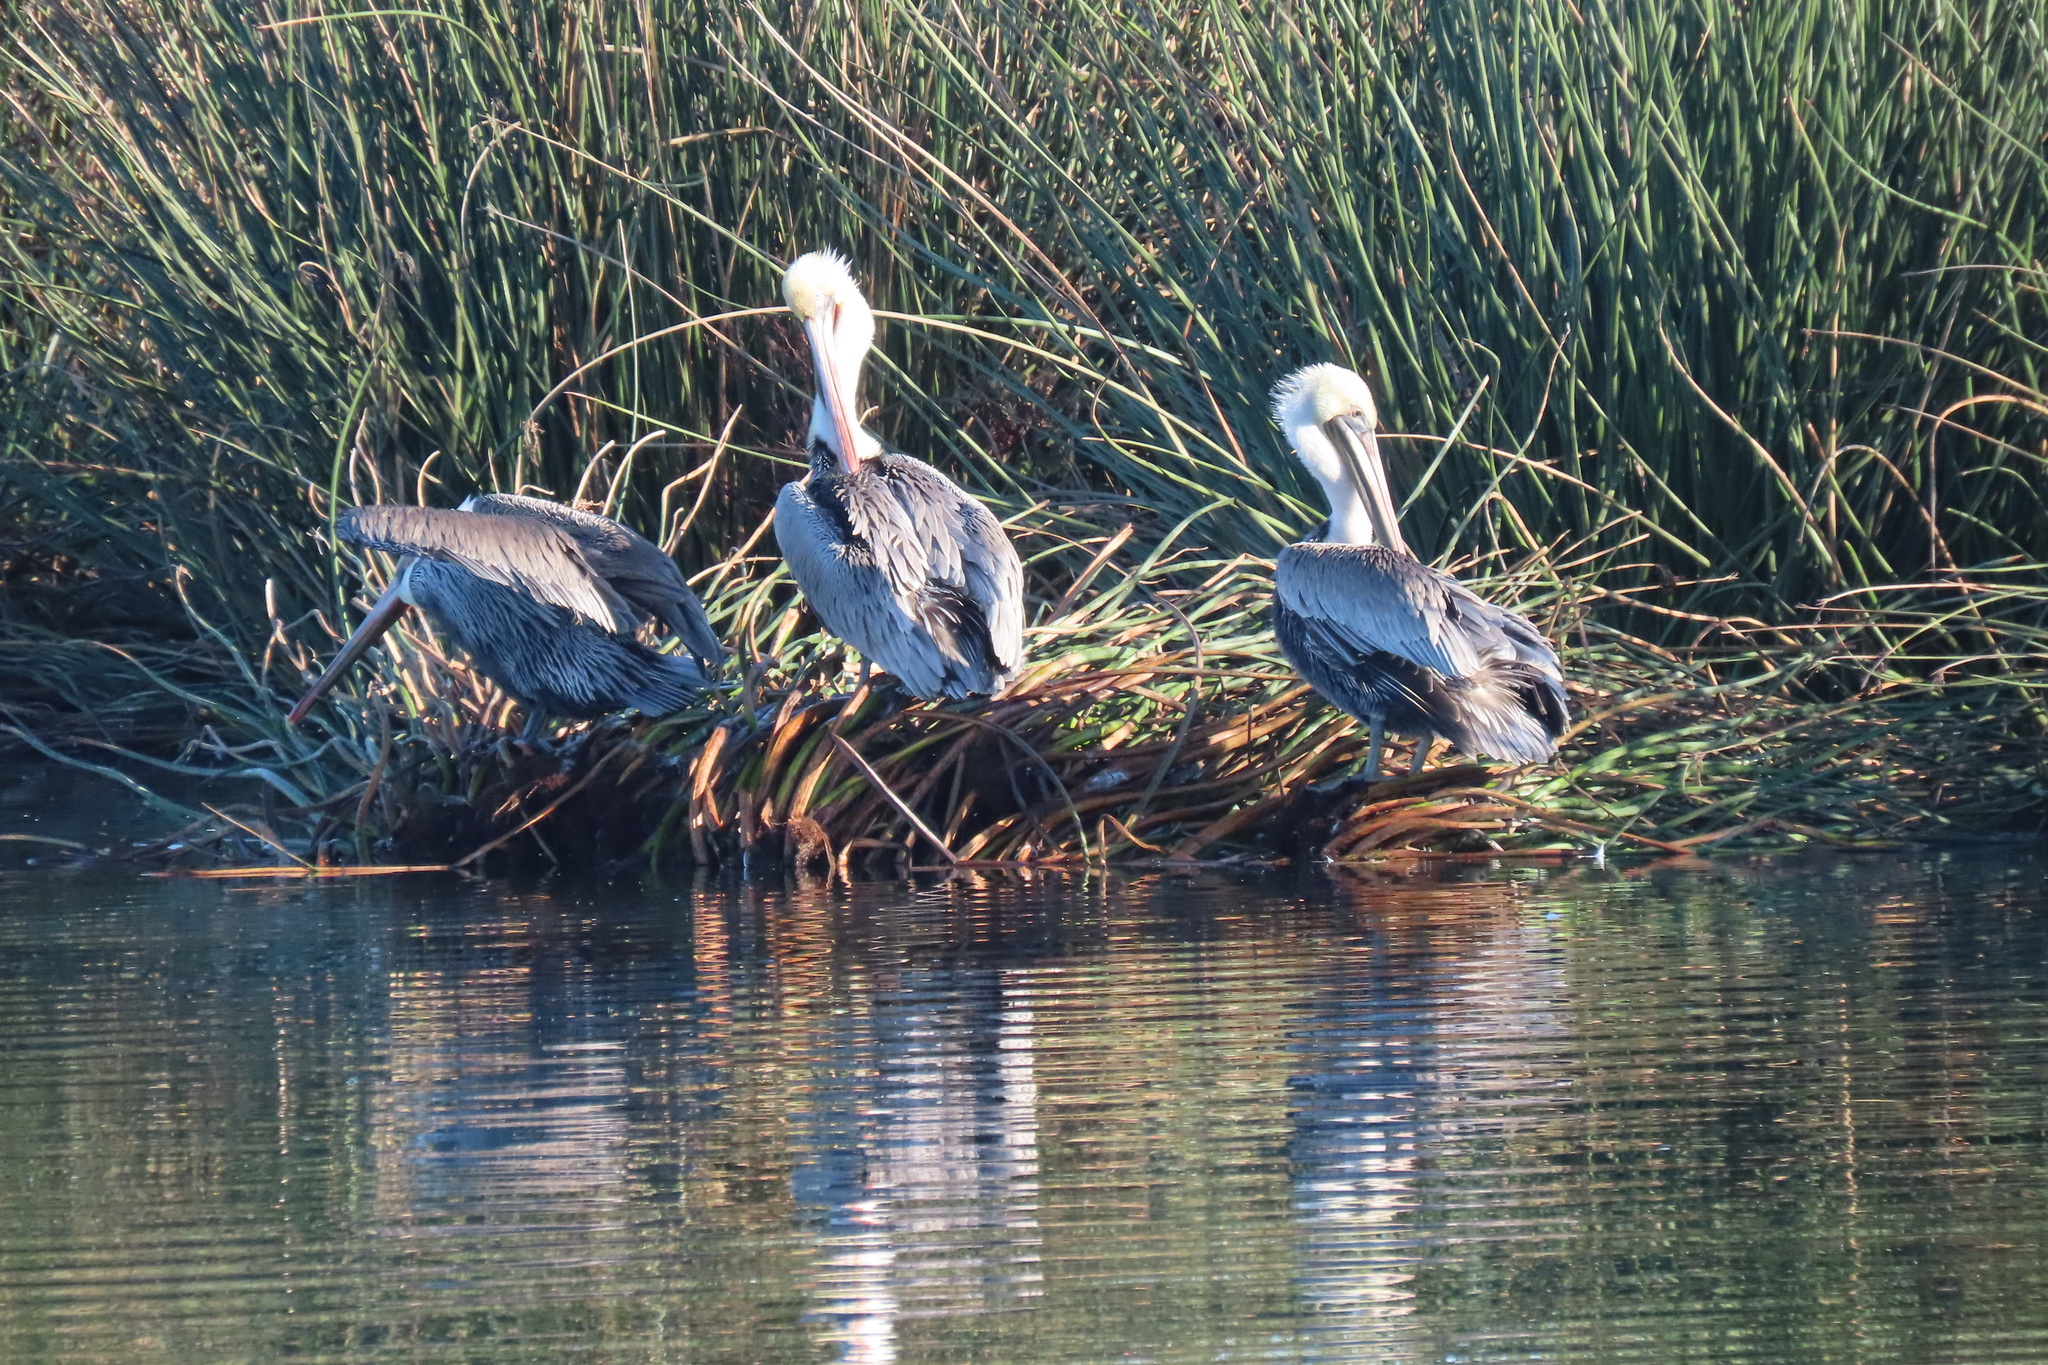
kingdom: Animalia
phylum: Chordata
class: Aves
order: Pelecaniformes
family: Pelecanidae
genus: Pelecanus
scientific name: Pelecanus occidentalis
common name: Brown pelican
